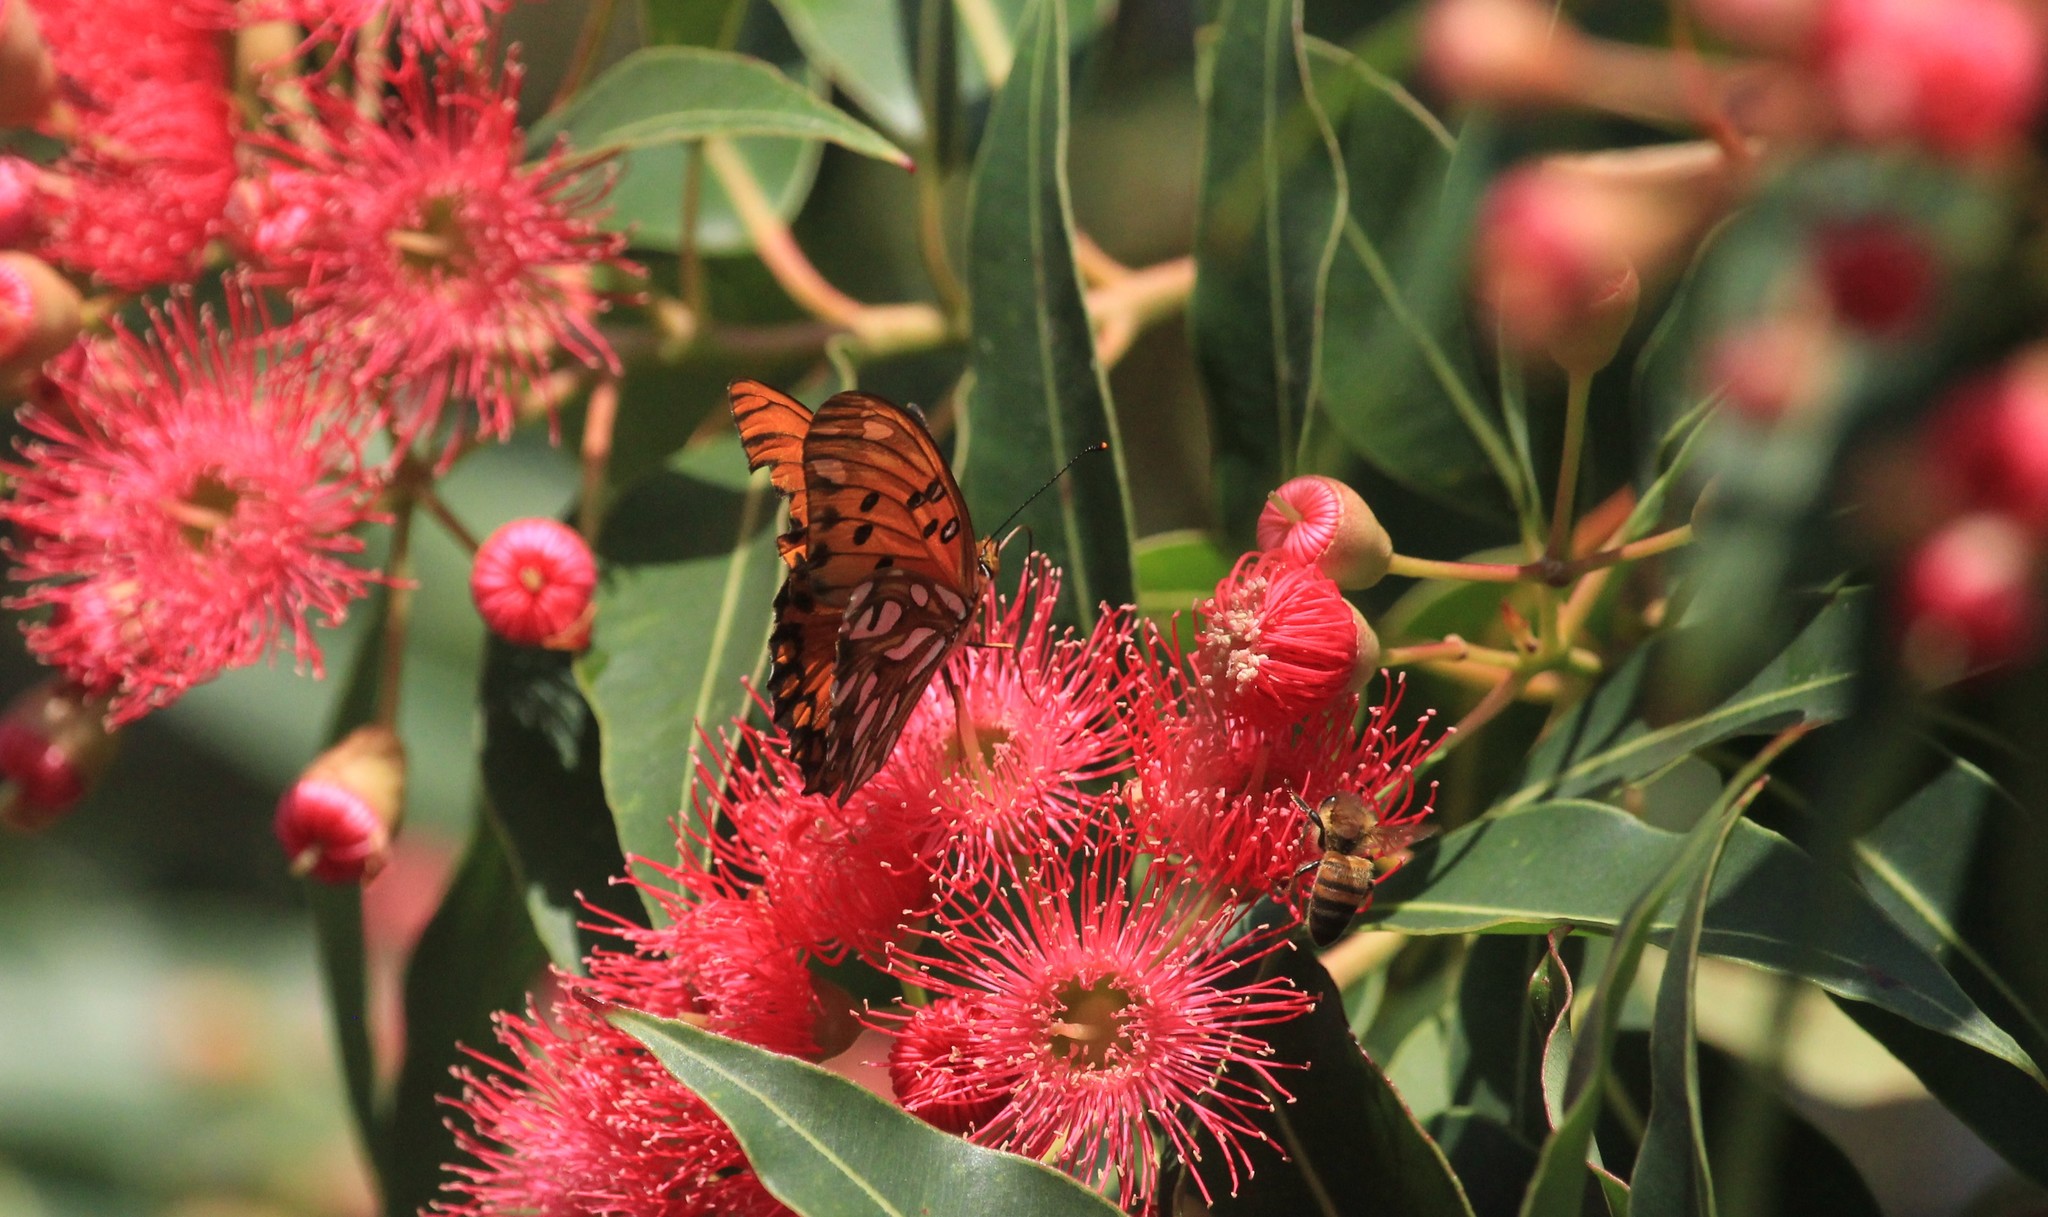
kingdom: Animalia
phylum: Arthropoda
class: Insecta
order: Lepidoptera
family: Nymphalidae
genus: Dione
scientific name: Dione vanillae
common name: Gulf fritillary
